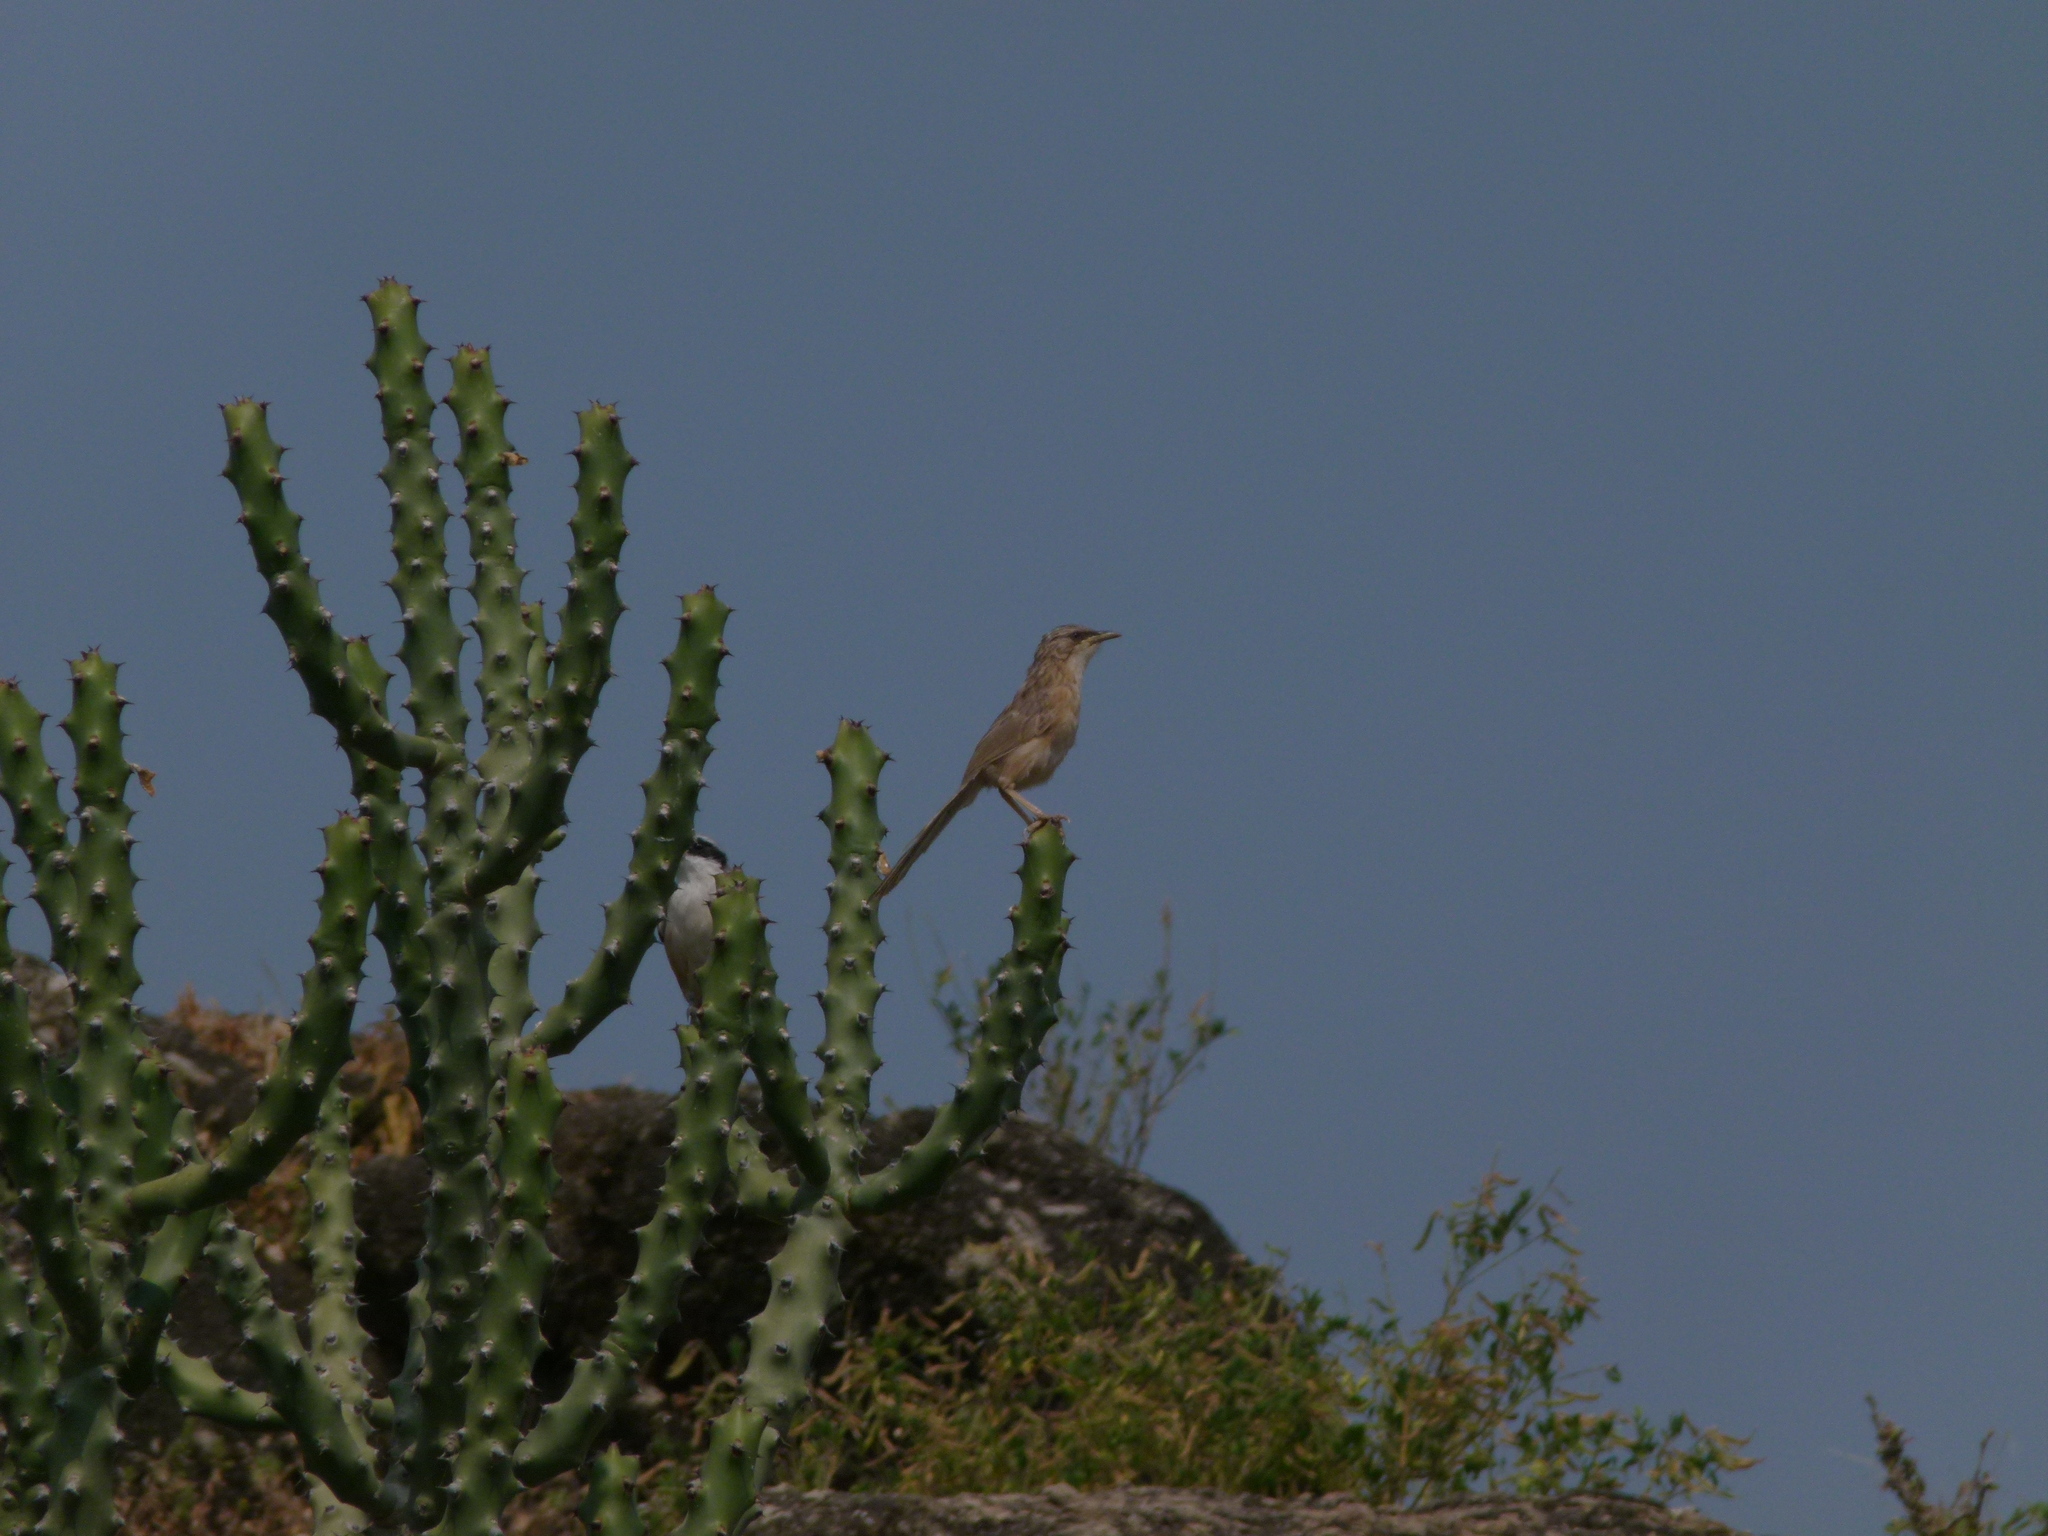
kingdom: Animalia
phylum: Chordata
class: Aves
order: Passeriformes
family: Leiothrichidae
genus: Turdoides
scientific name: Turdoides malcolmi
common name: Large grey babbler
